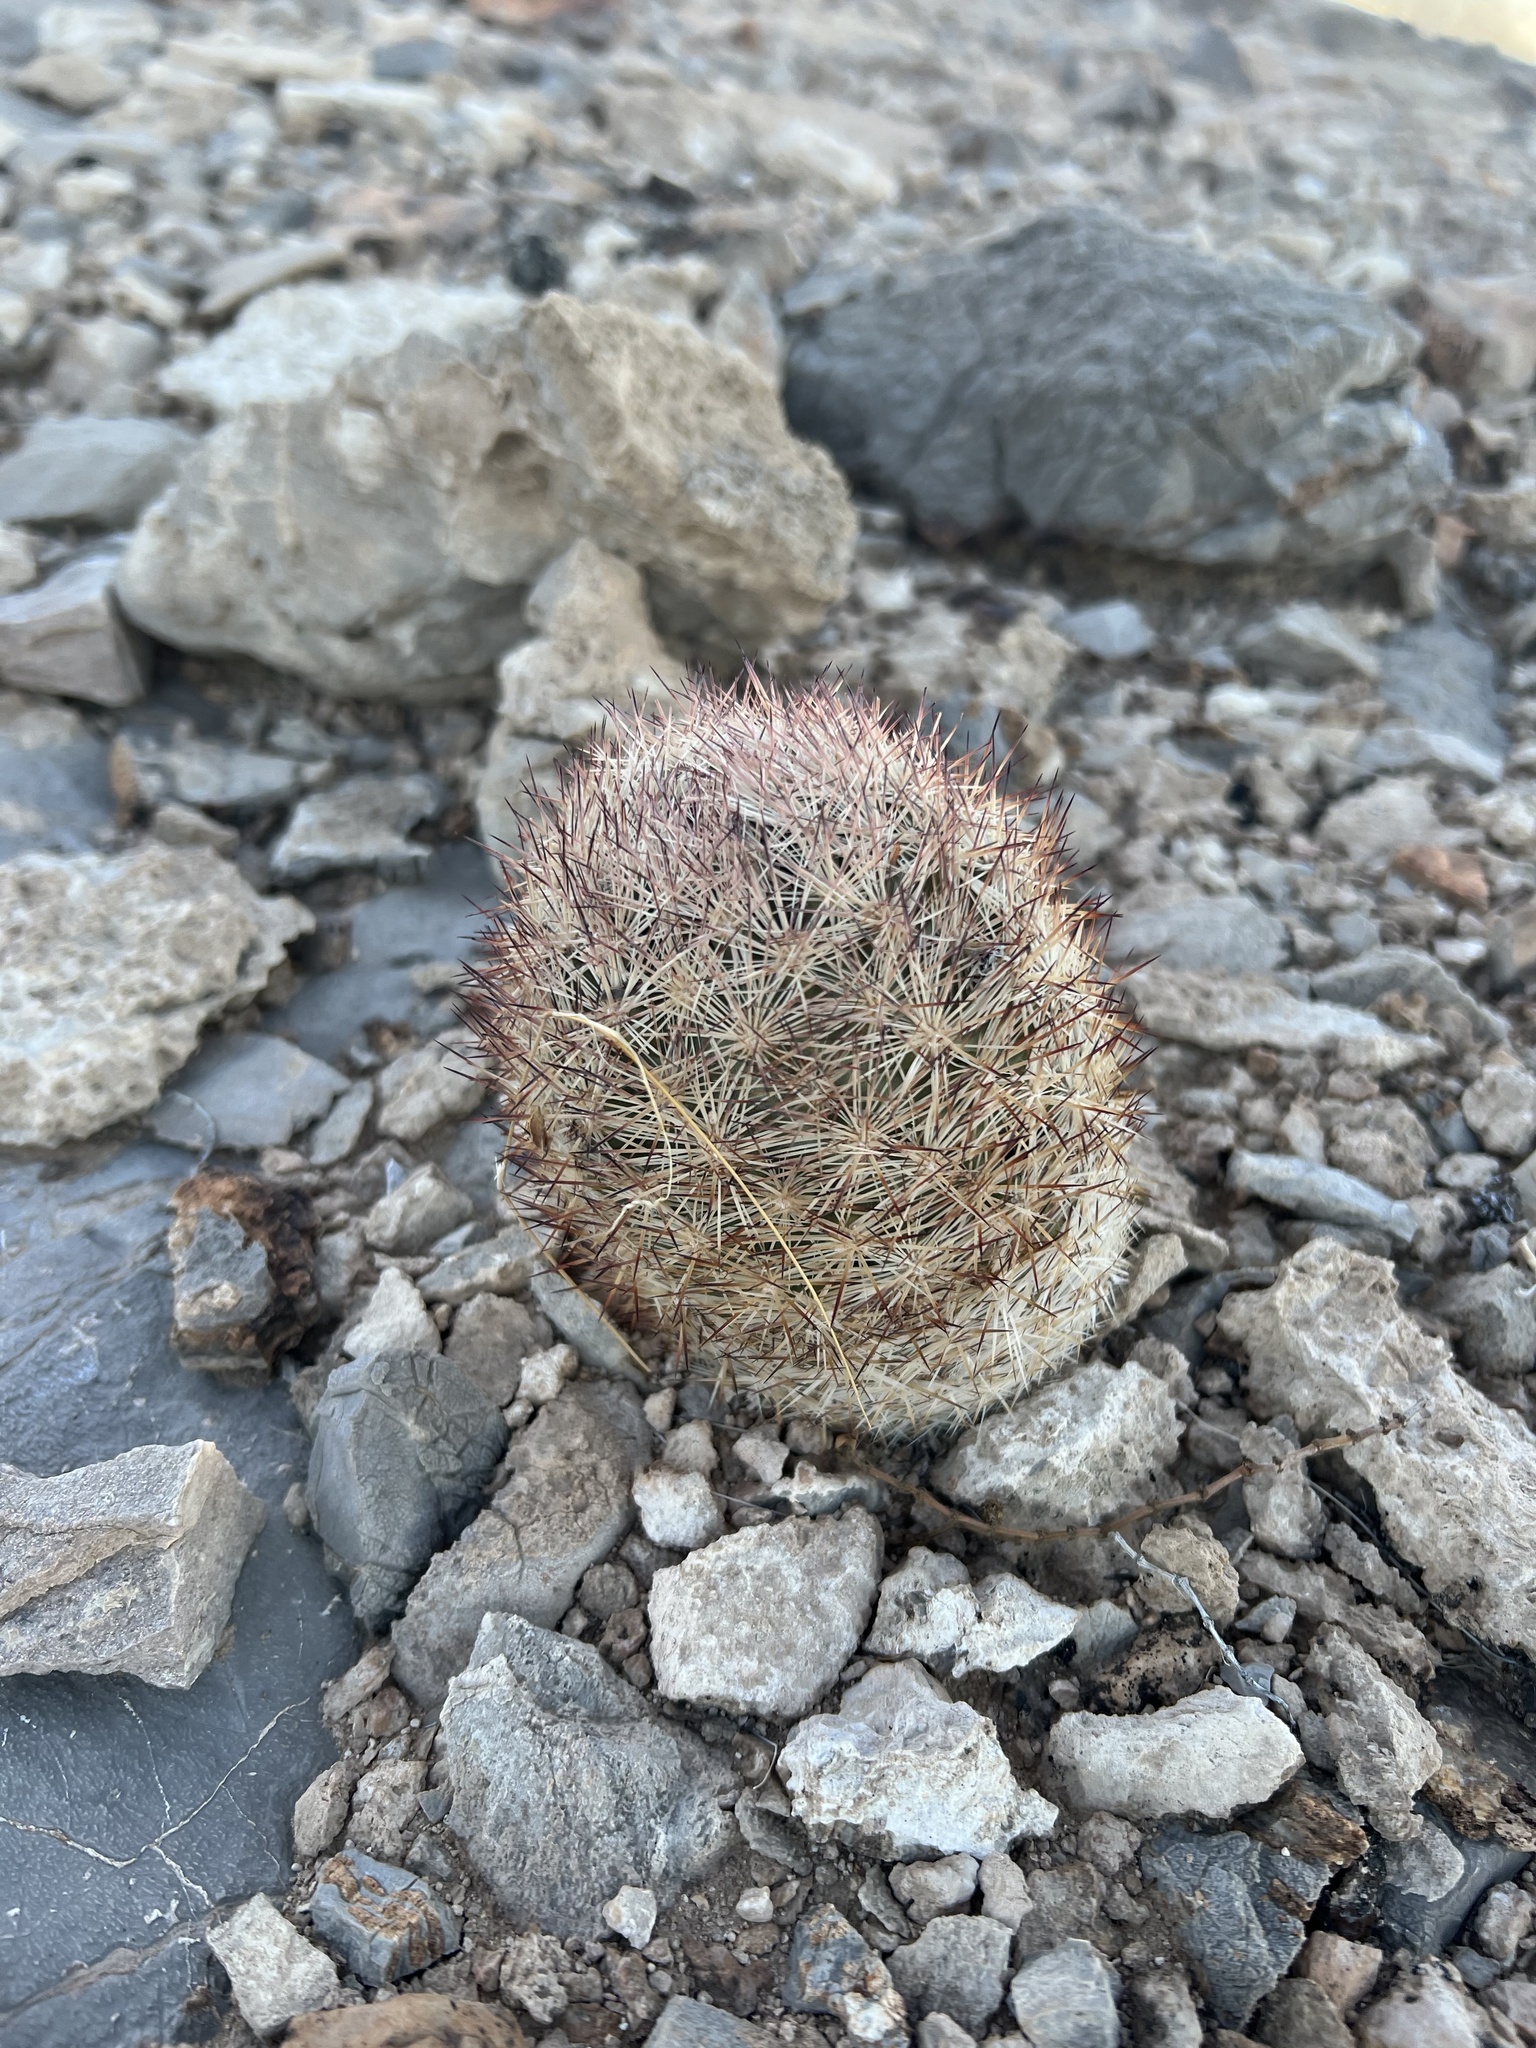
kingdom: Plantae
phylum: Tracheophyta
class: Magnoliopsida
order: Caryophyllales
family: Cactaceae
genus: Pelecyphora
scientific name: Pelecyphora dasyacantha
